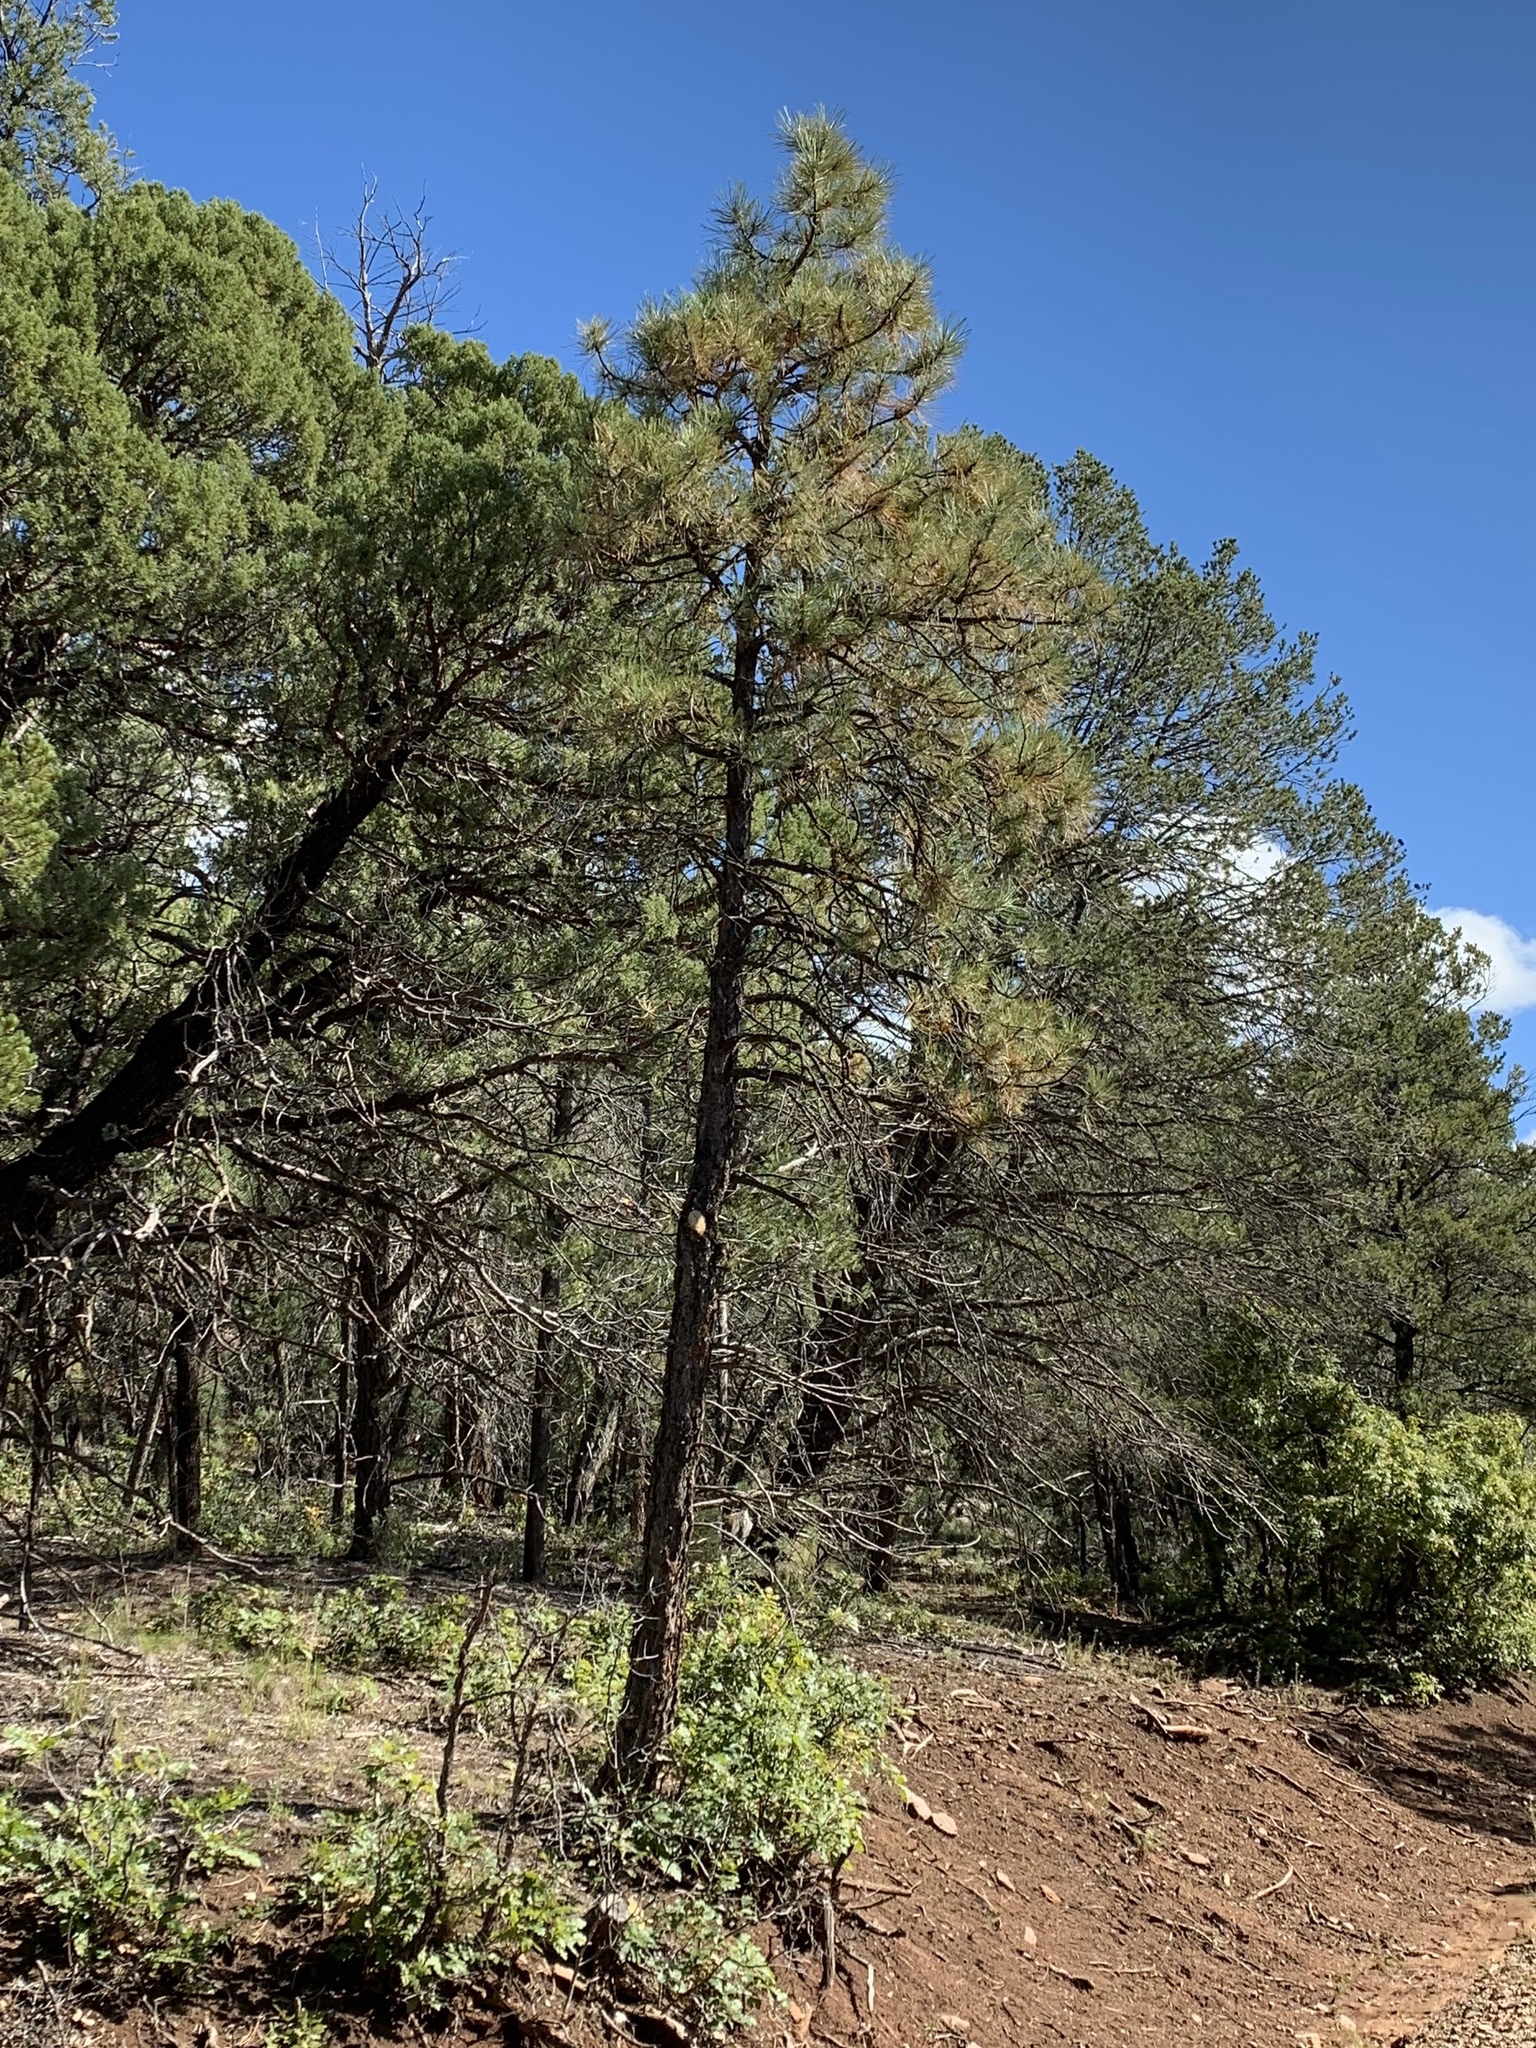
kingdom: Plantae
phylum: Tracheophyta
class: Pinopsida
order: Pinales
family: Pinaceae
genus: Pinus
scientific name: Pinus ponderosa
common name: Western yellow-pine
